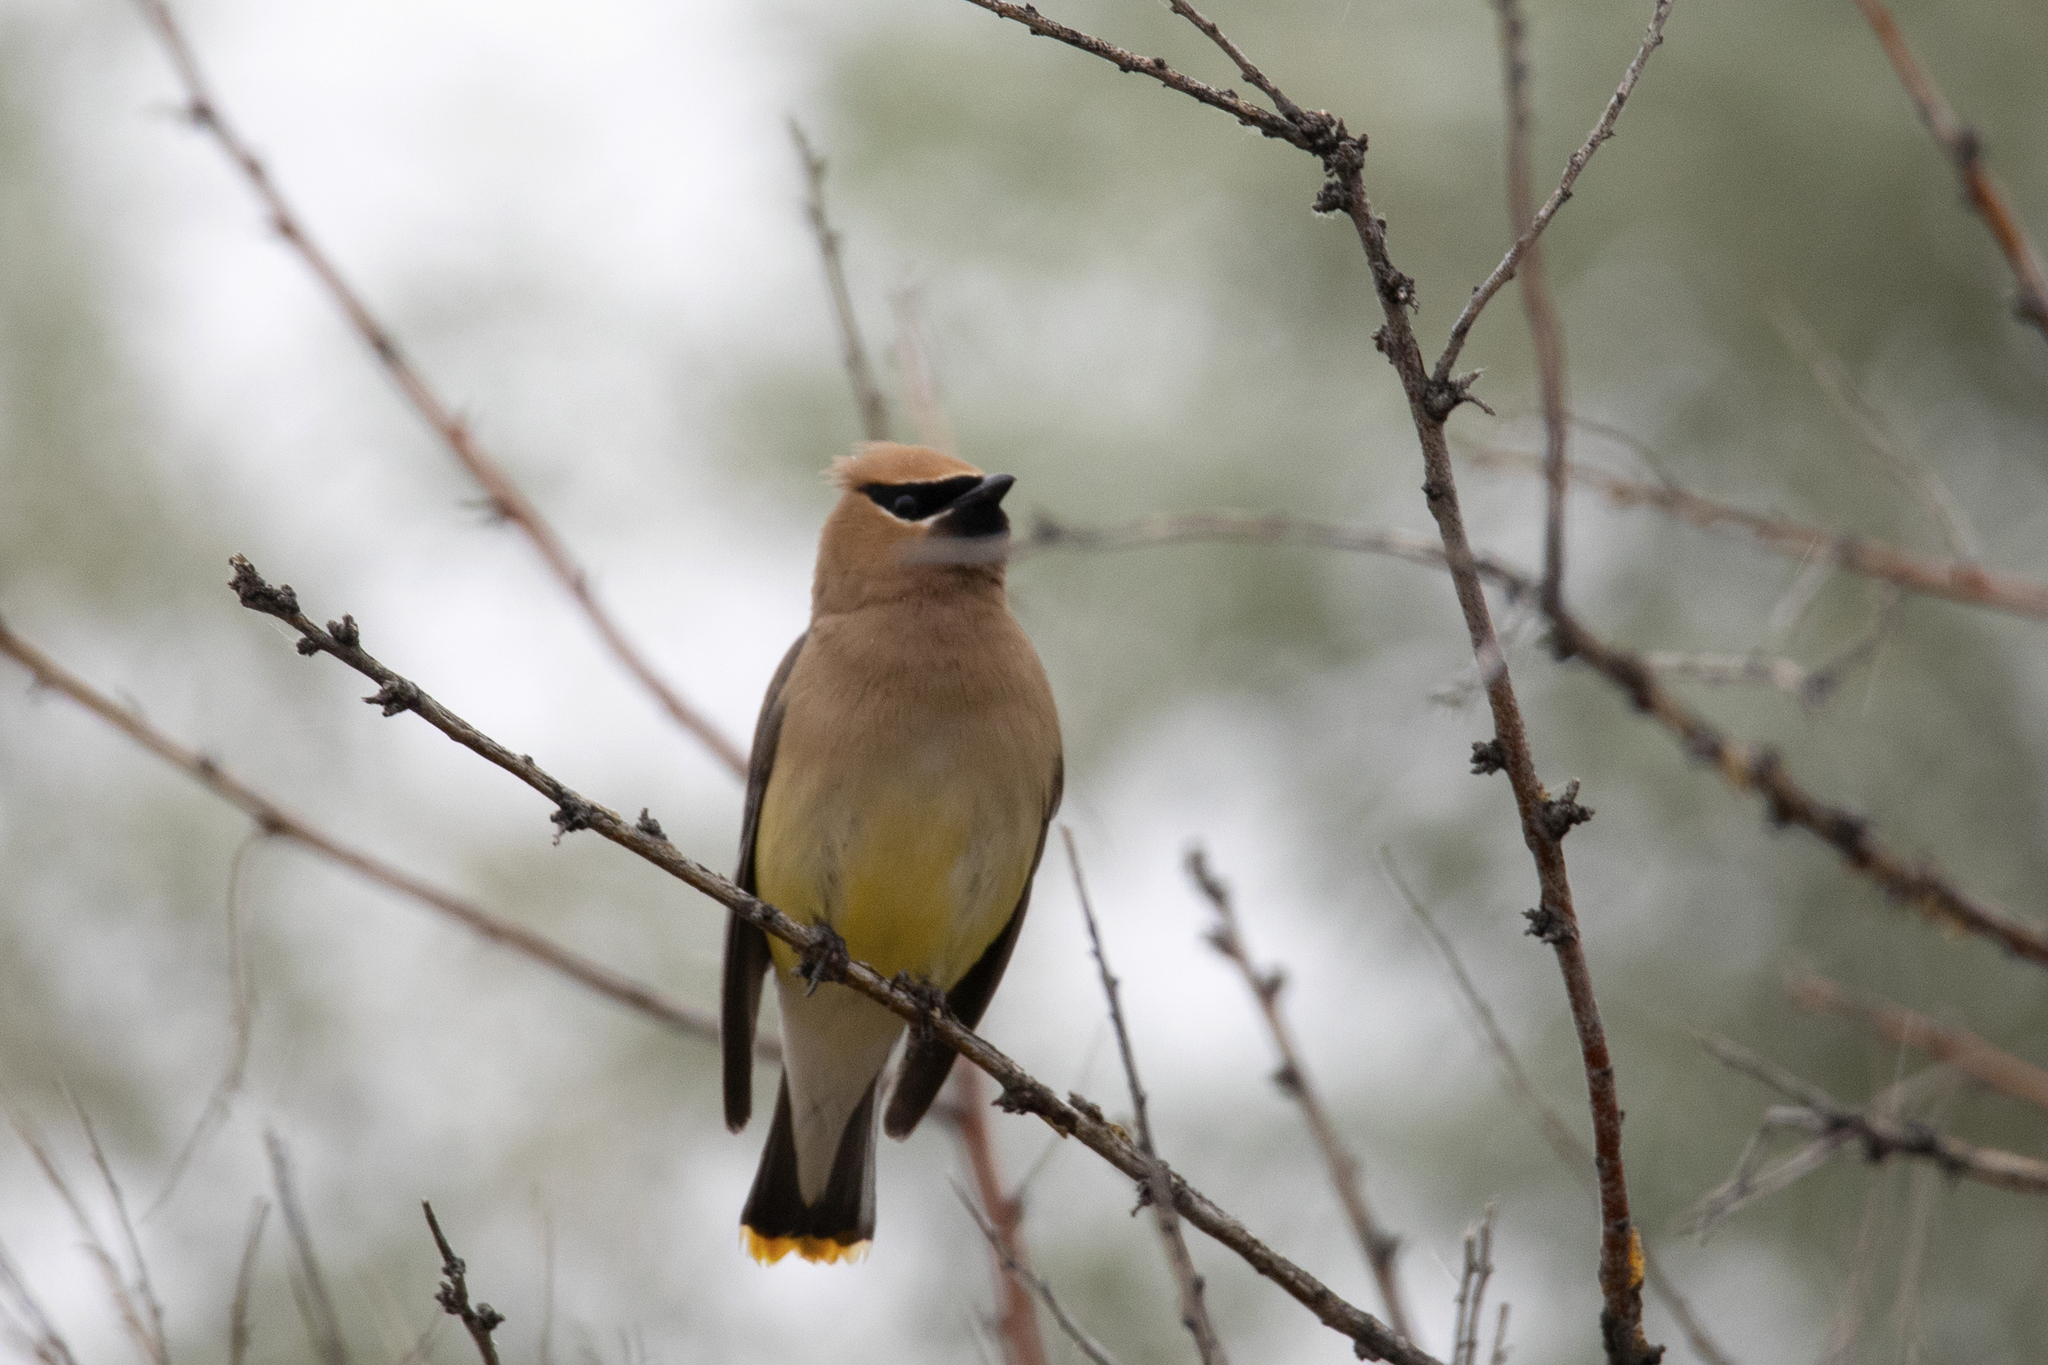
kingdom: Animalia
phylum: Chordata
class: Aves
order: Passeriformes
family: Bombycillidae
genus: Bombycilla
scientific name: Bombycilla cedrorum
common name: Cedar waxwing
